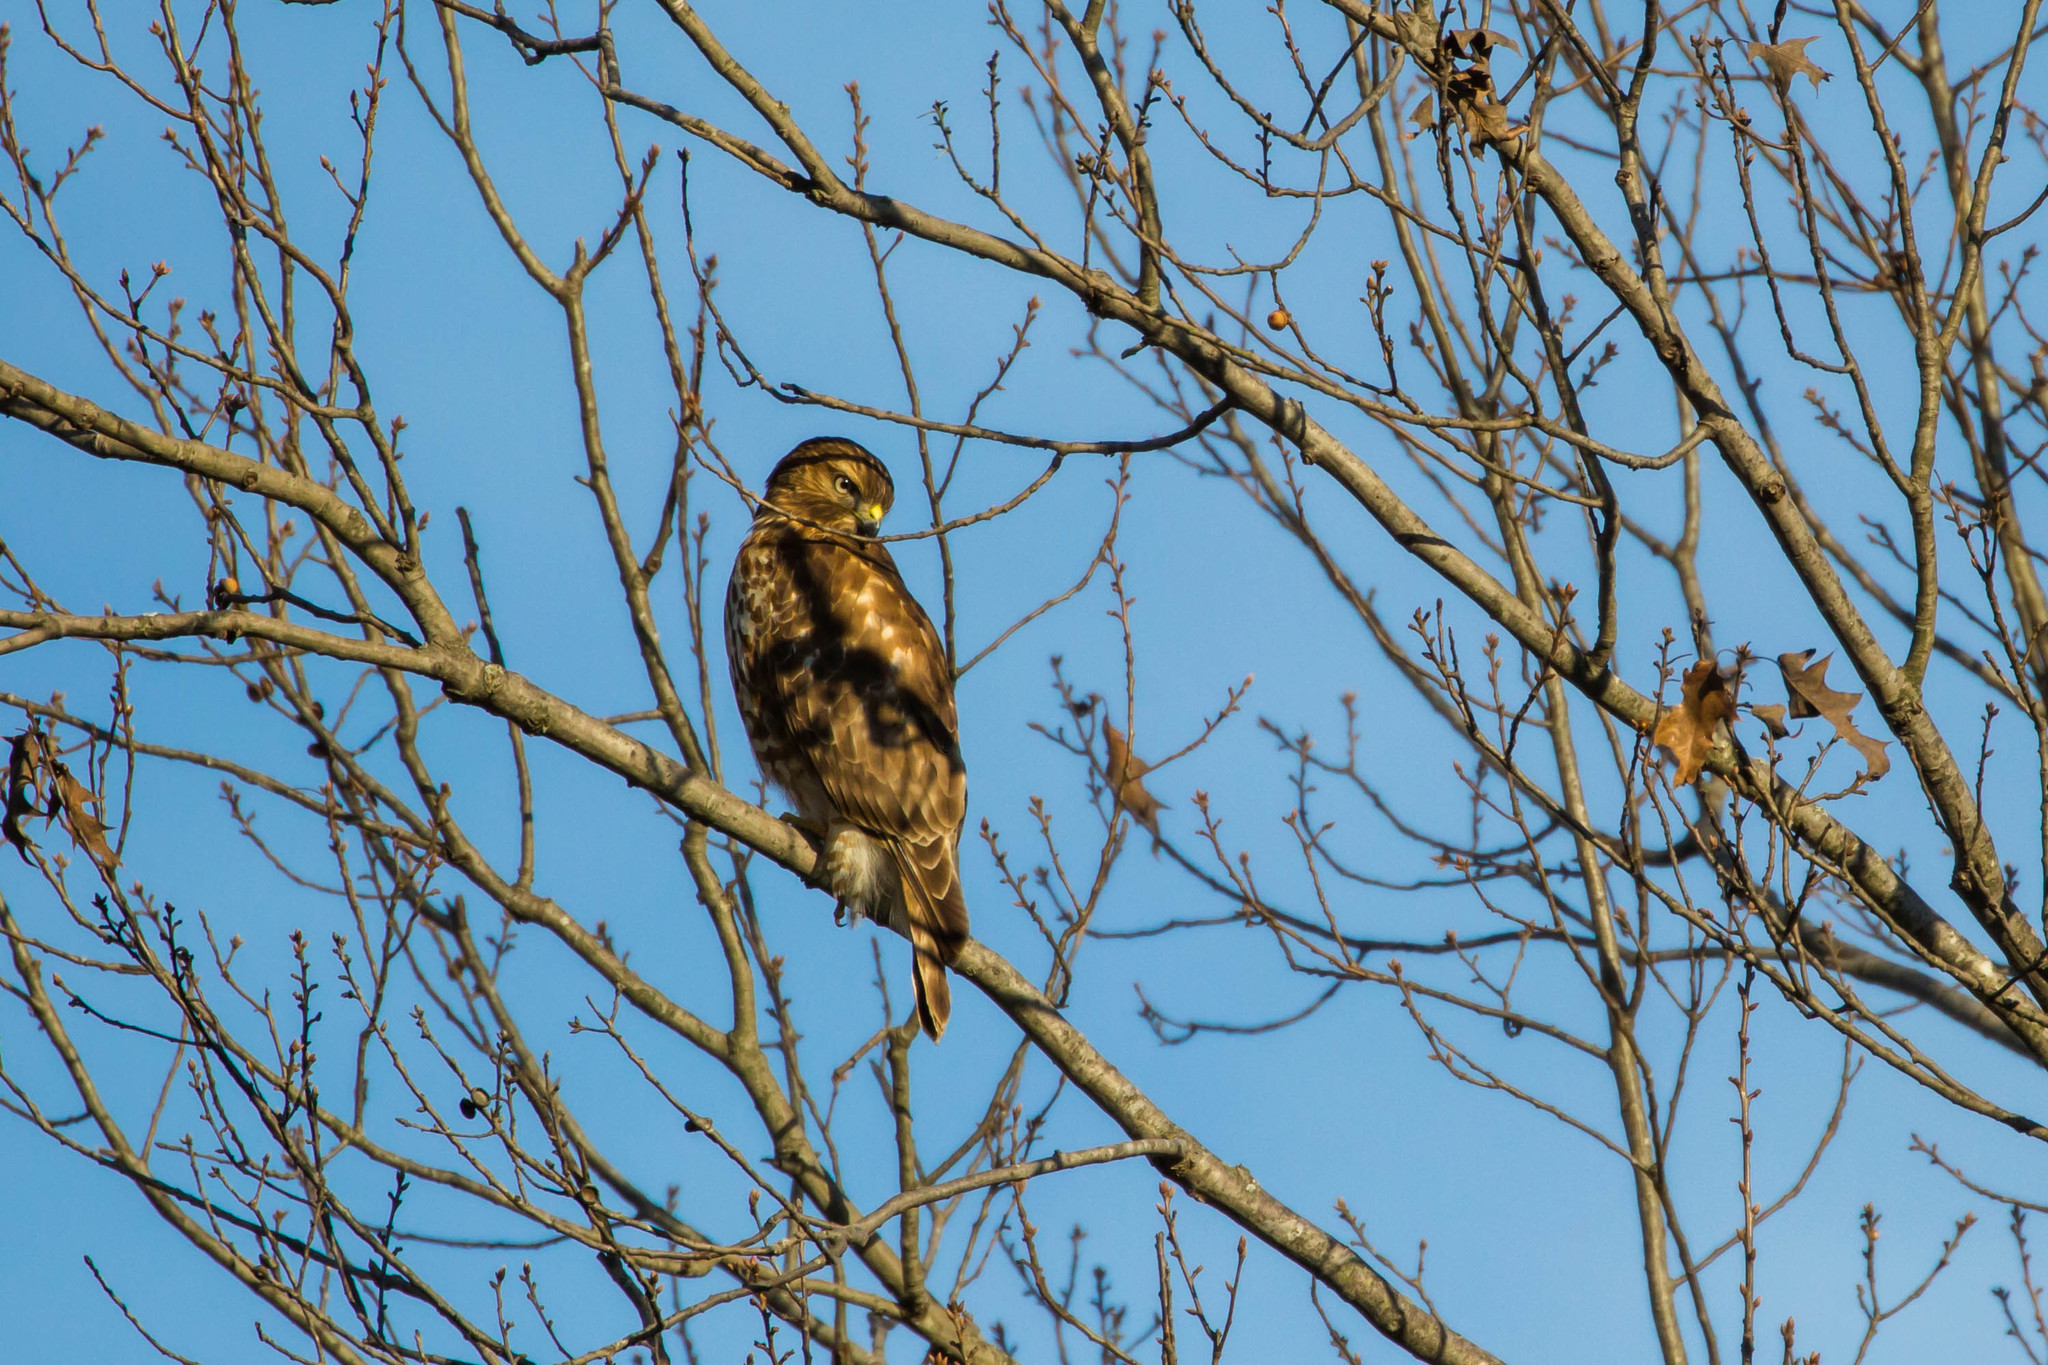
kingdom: Animalia
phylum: Chordata
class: Aves
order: Accipitriformes
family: Accipitridae
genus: Buteo
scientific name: Buteo lineatus
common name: Red-shouldered hawk
